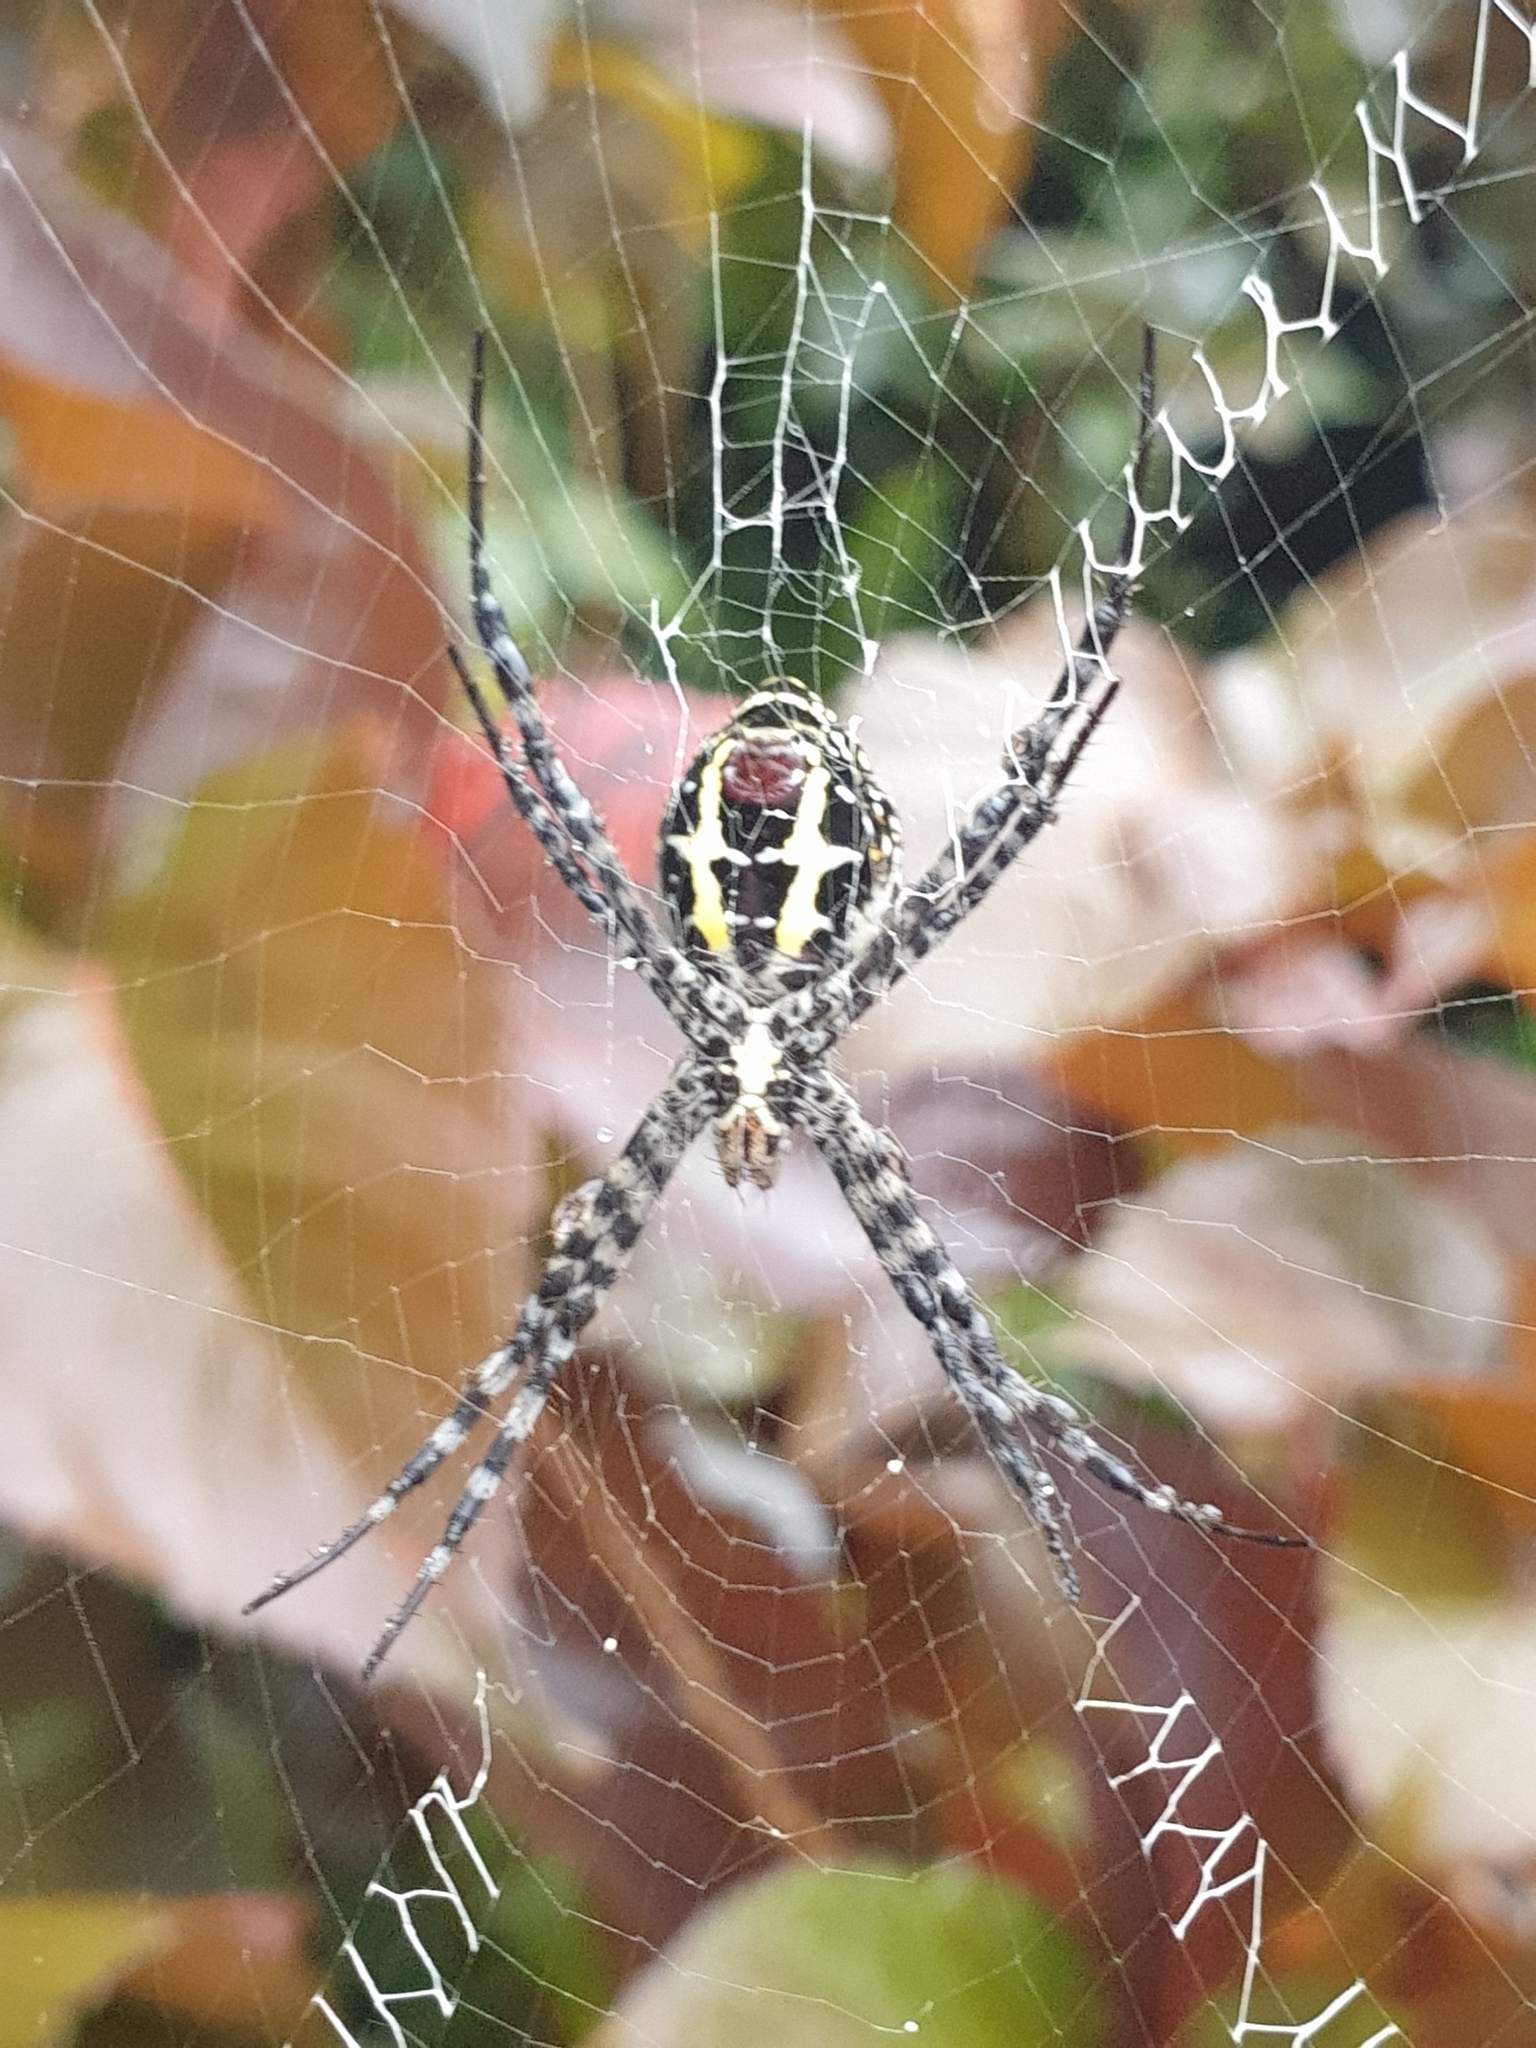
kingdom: Animalia
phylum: Arthropoda
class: Arachnida
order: Araneae
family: Araneidae
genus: Argiope
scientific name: Argiope aemula
